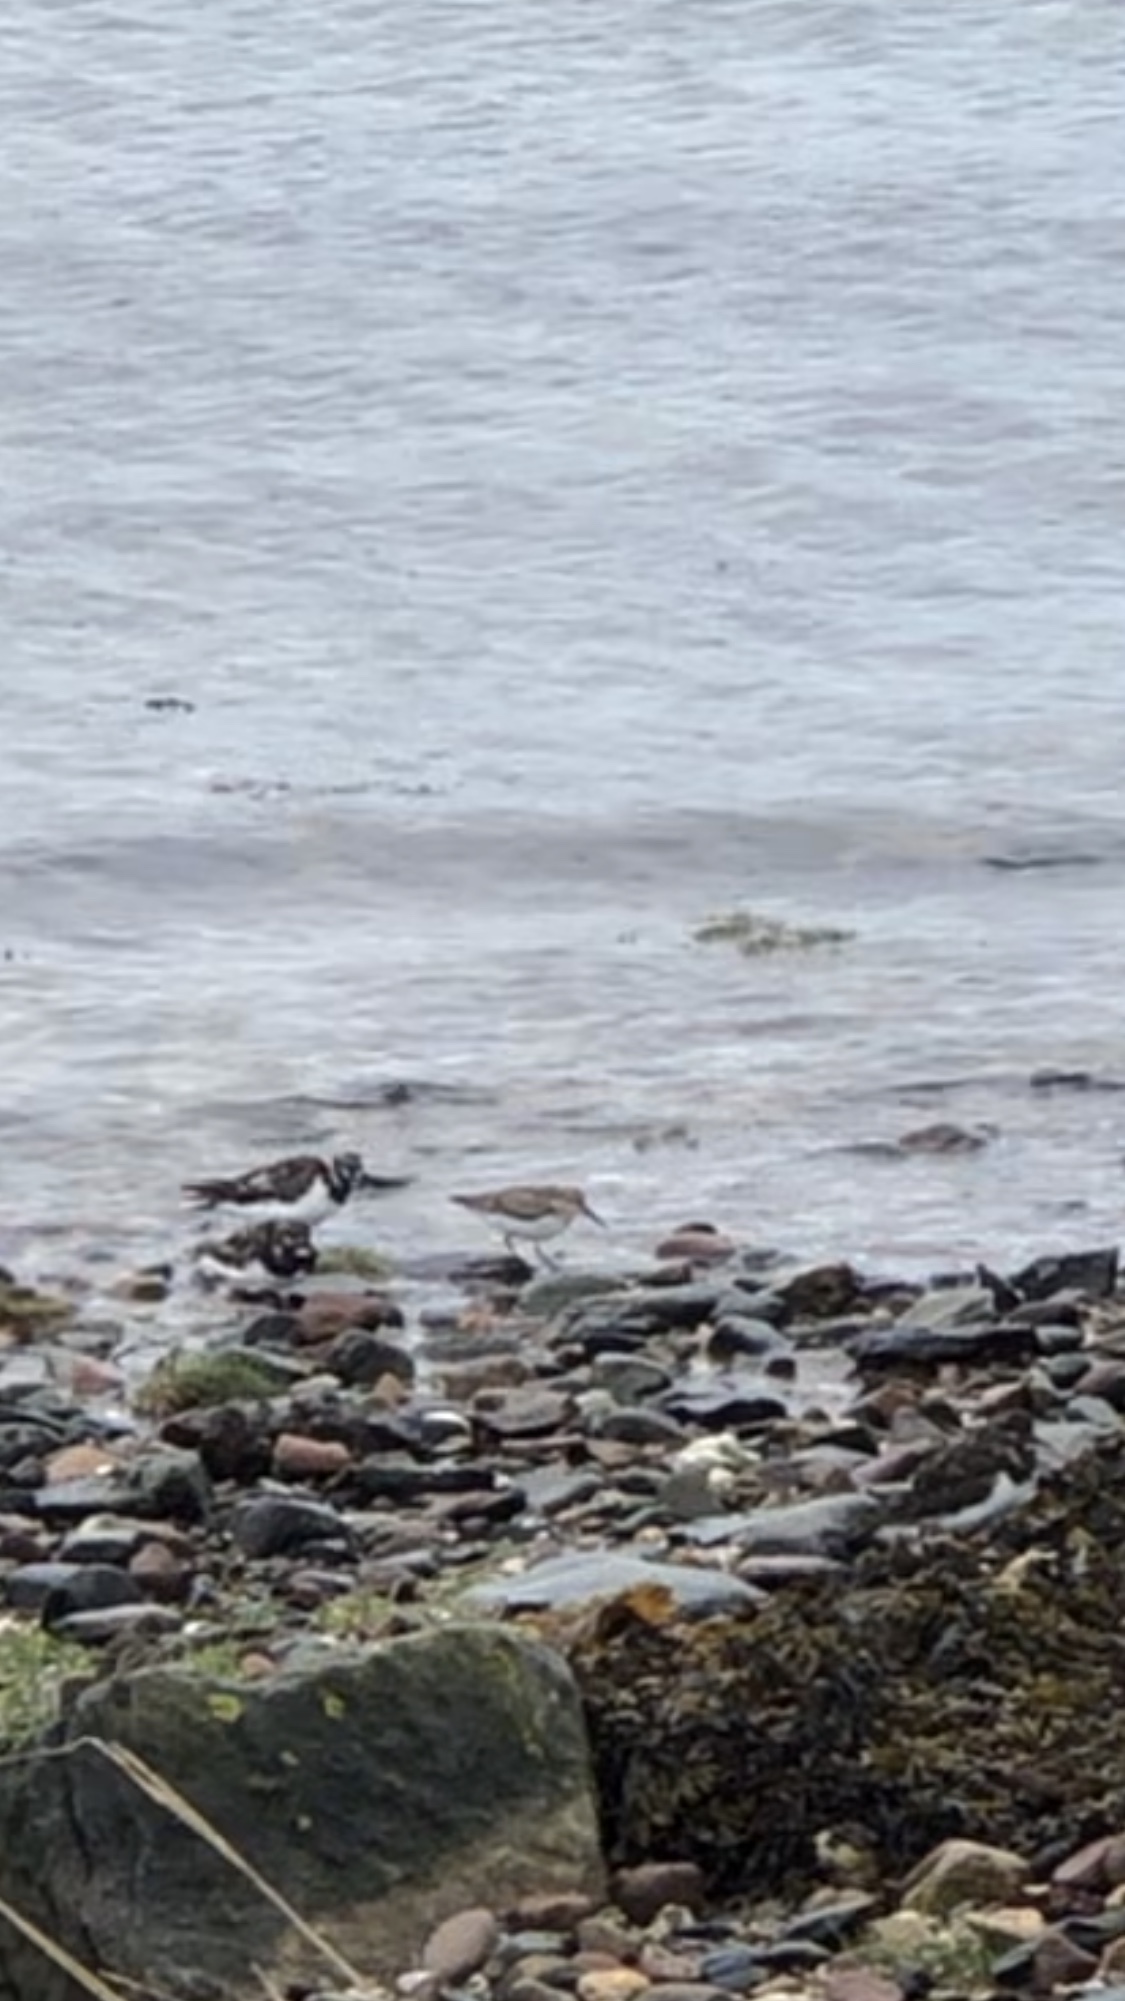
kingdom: Animalia
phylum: Chordata
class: Aves
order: Charadriiformes
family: Scolopacidae
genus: Calidris
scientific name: Calidris alpina
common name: Dunlin
